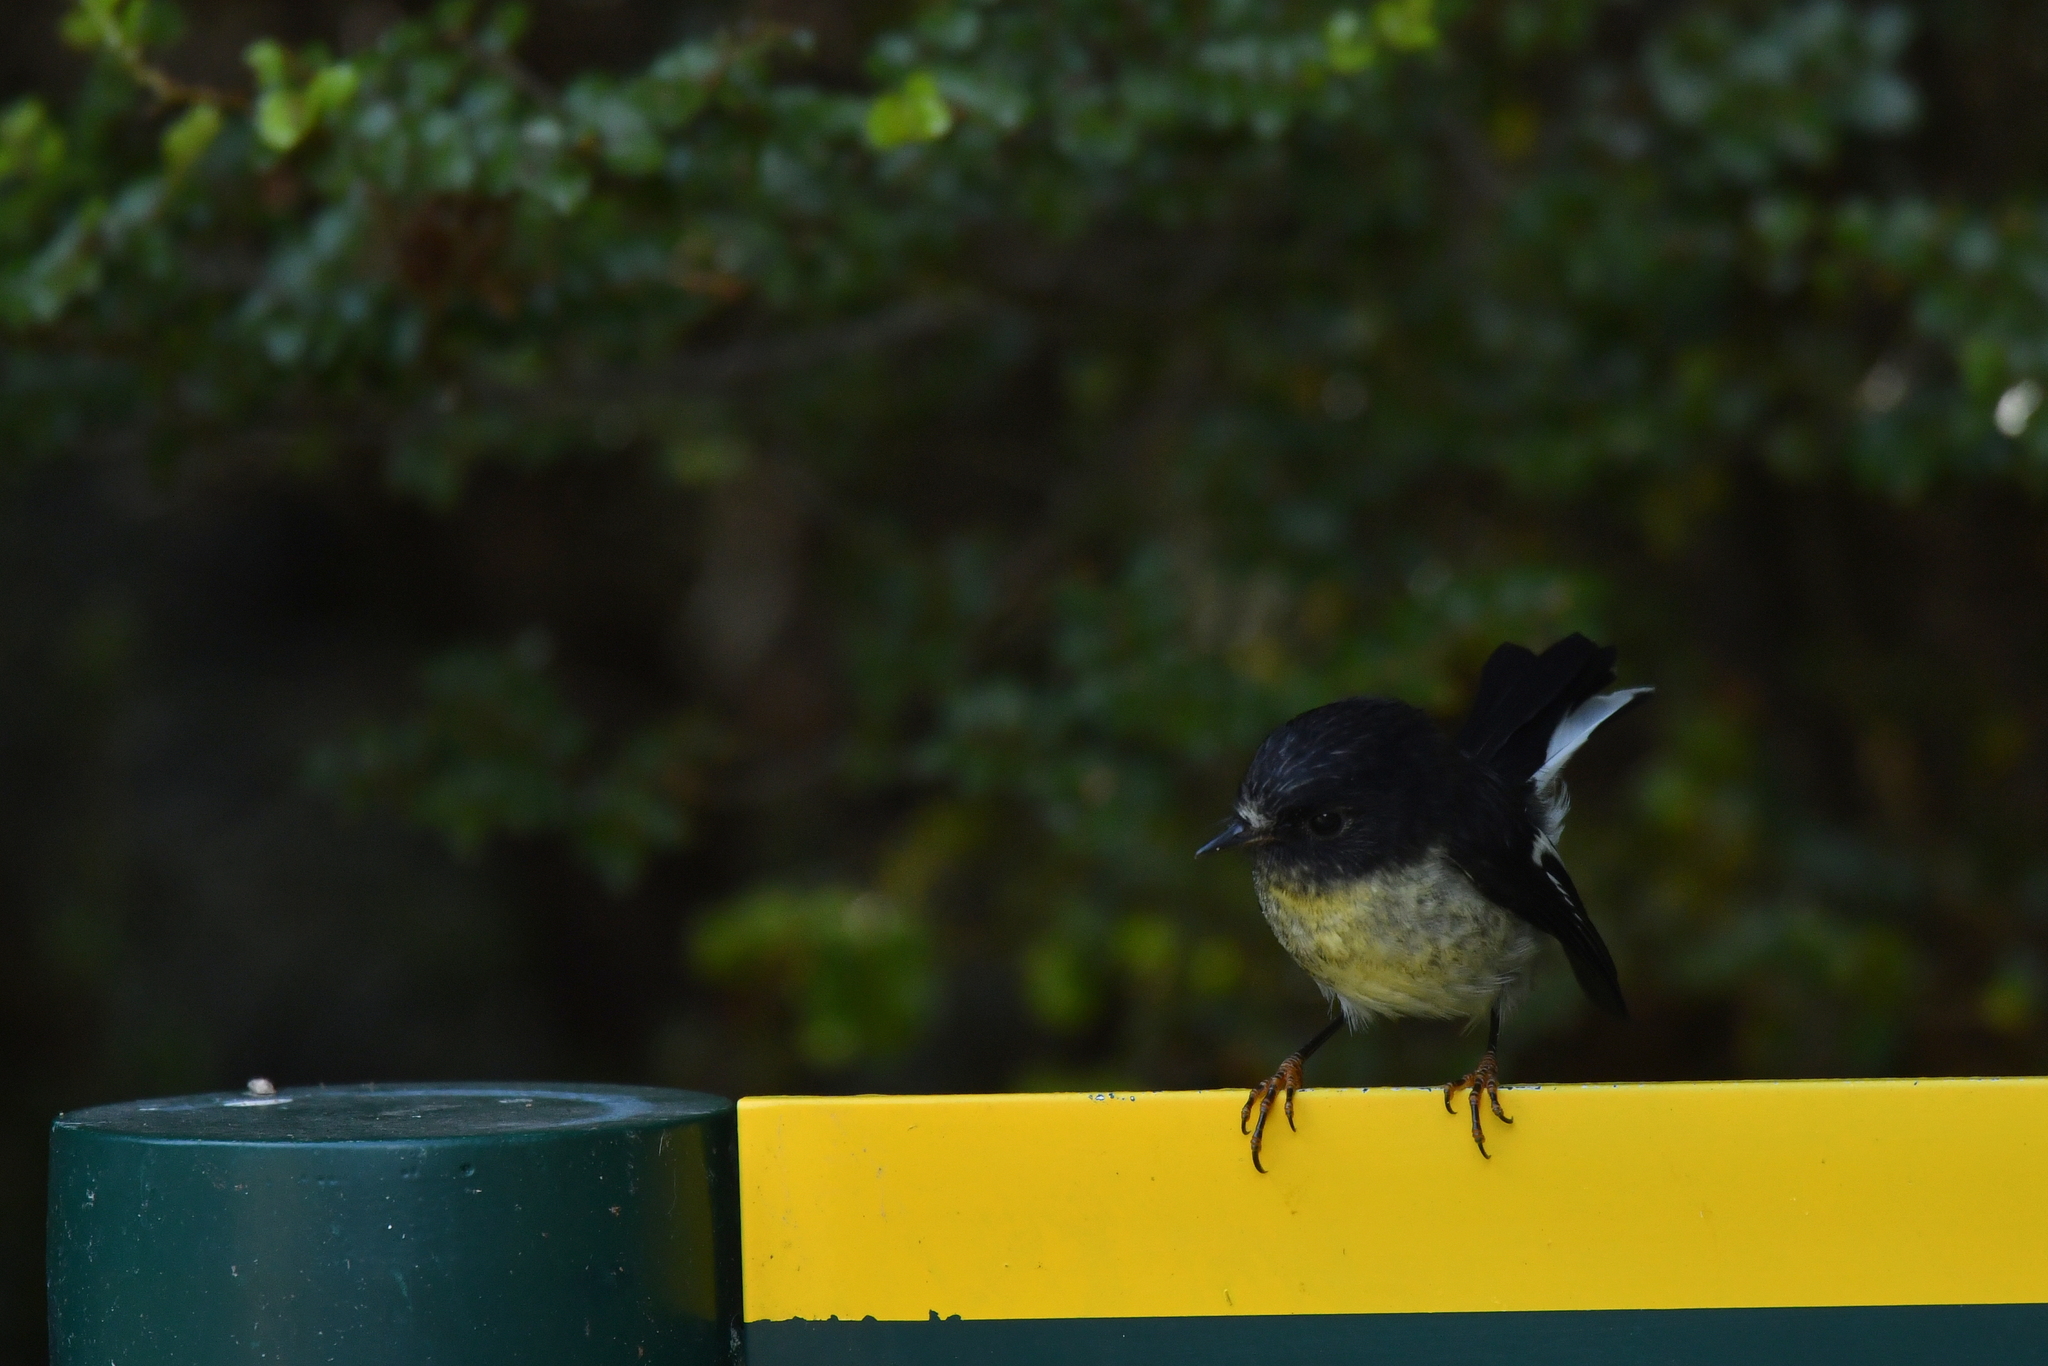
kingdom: Animalia
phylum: Chordata
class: Aves
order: Passeriformes
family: Petroicidae
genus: Petroica
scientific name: Petroica macrocephala
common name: Tomtit
